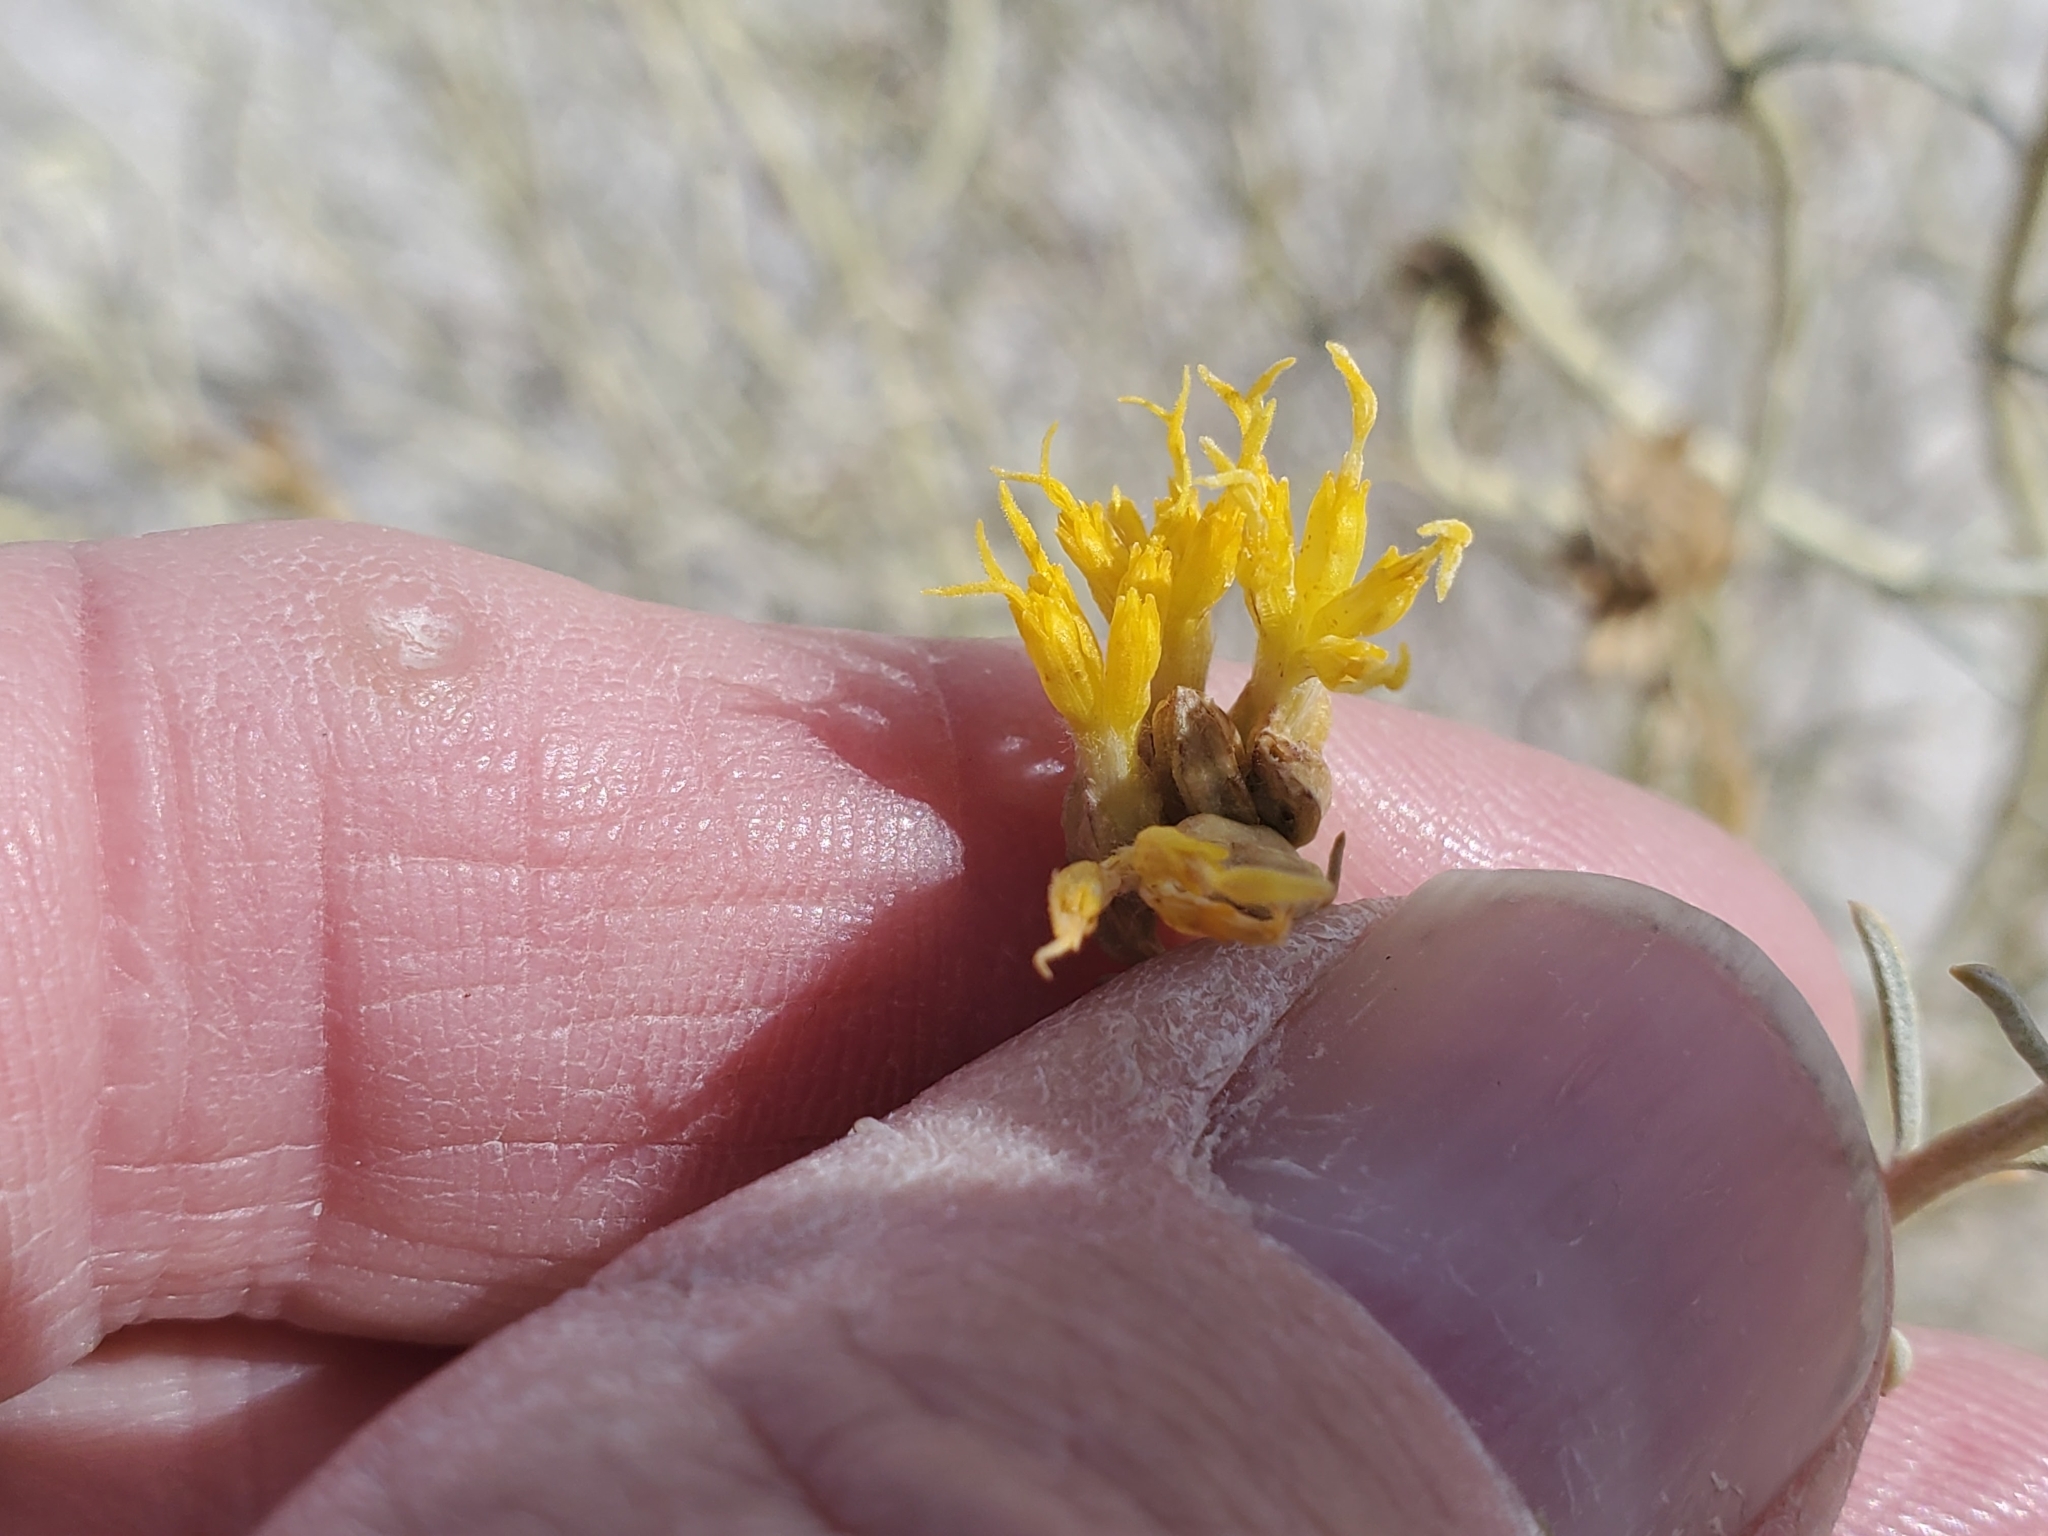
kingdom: Plantae
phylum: Tracheophyta
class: Magnoliopsida
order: Asterales
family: Asteraceae
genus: Ericameria
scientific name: Ericameria nauseosa
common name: Rubber rabbitbrush
